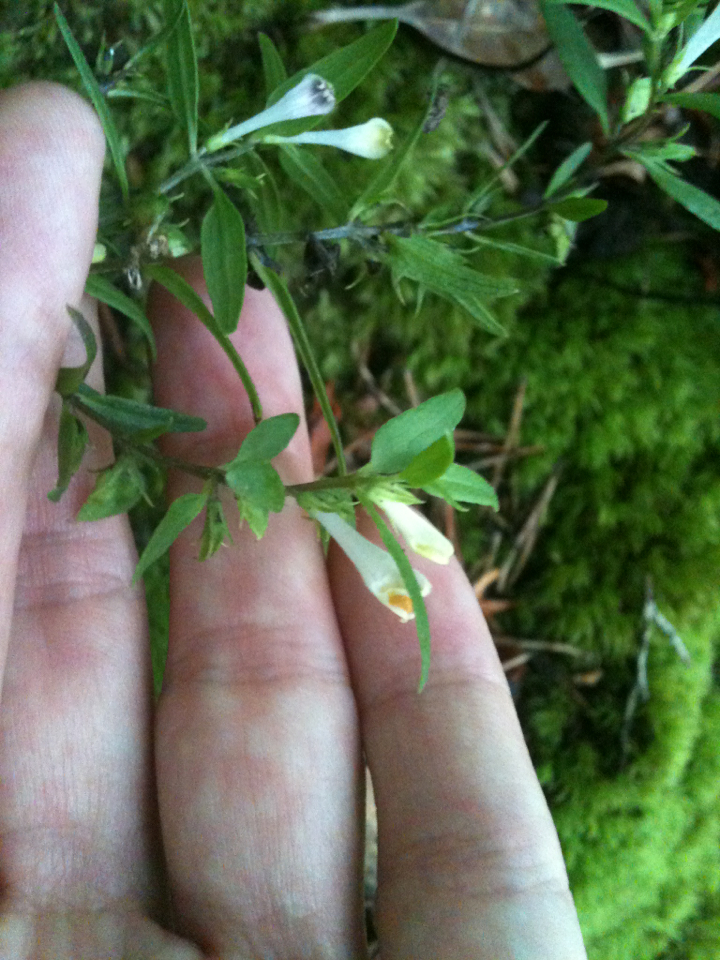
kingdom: Plantae
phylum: Tracheophyta
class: Magnoliopsida
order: Lamiales
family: Orobanchaceae
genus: Melampyrum
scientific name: Melampyrum lineare
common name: American cow-wheat
